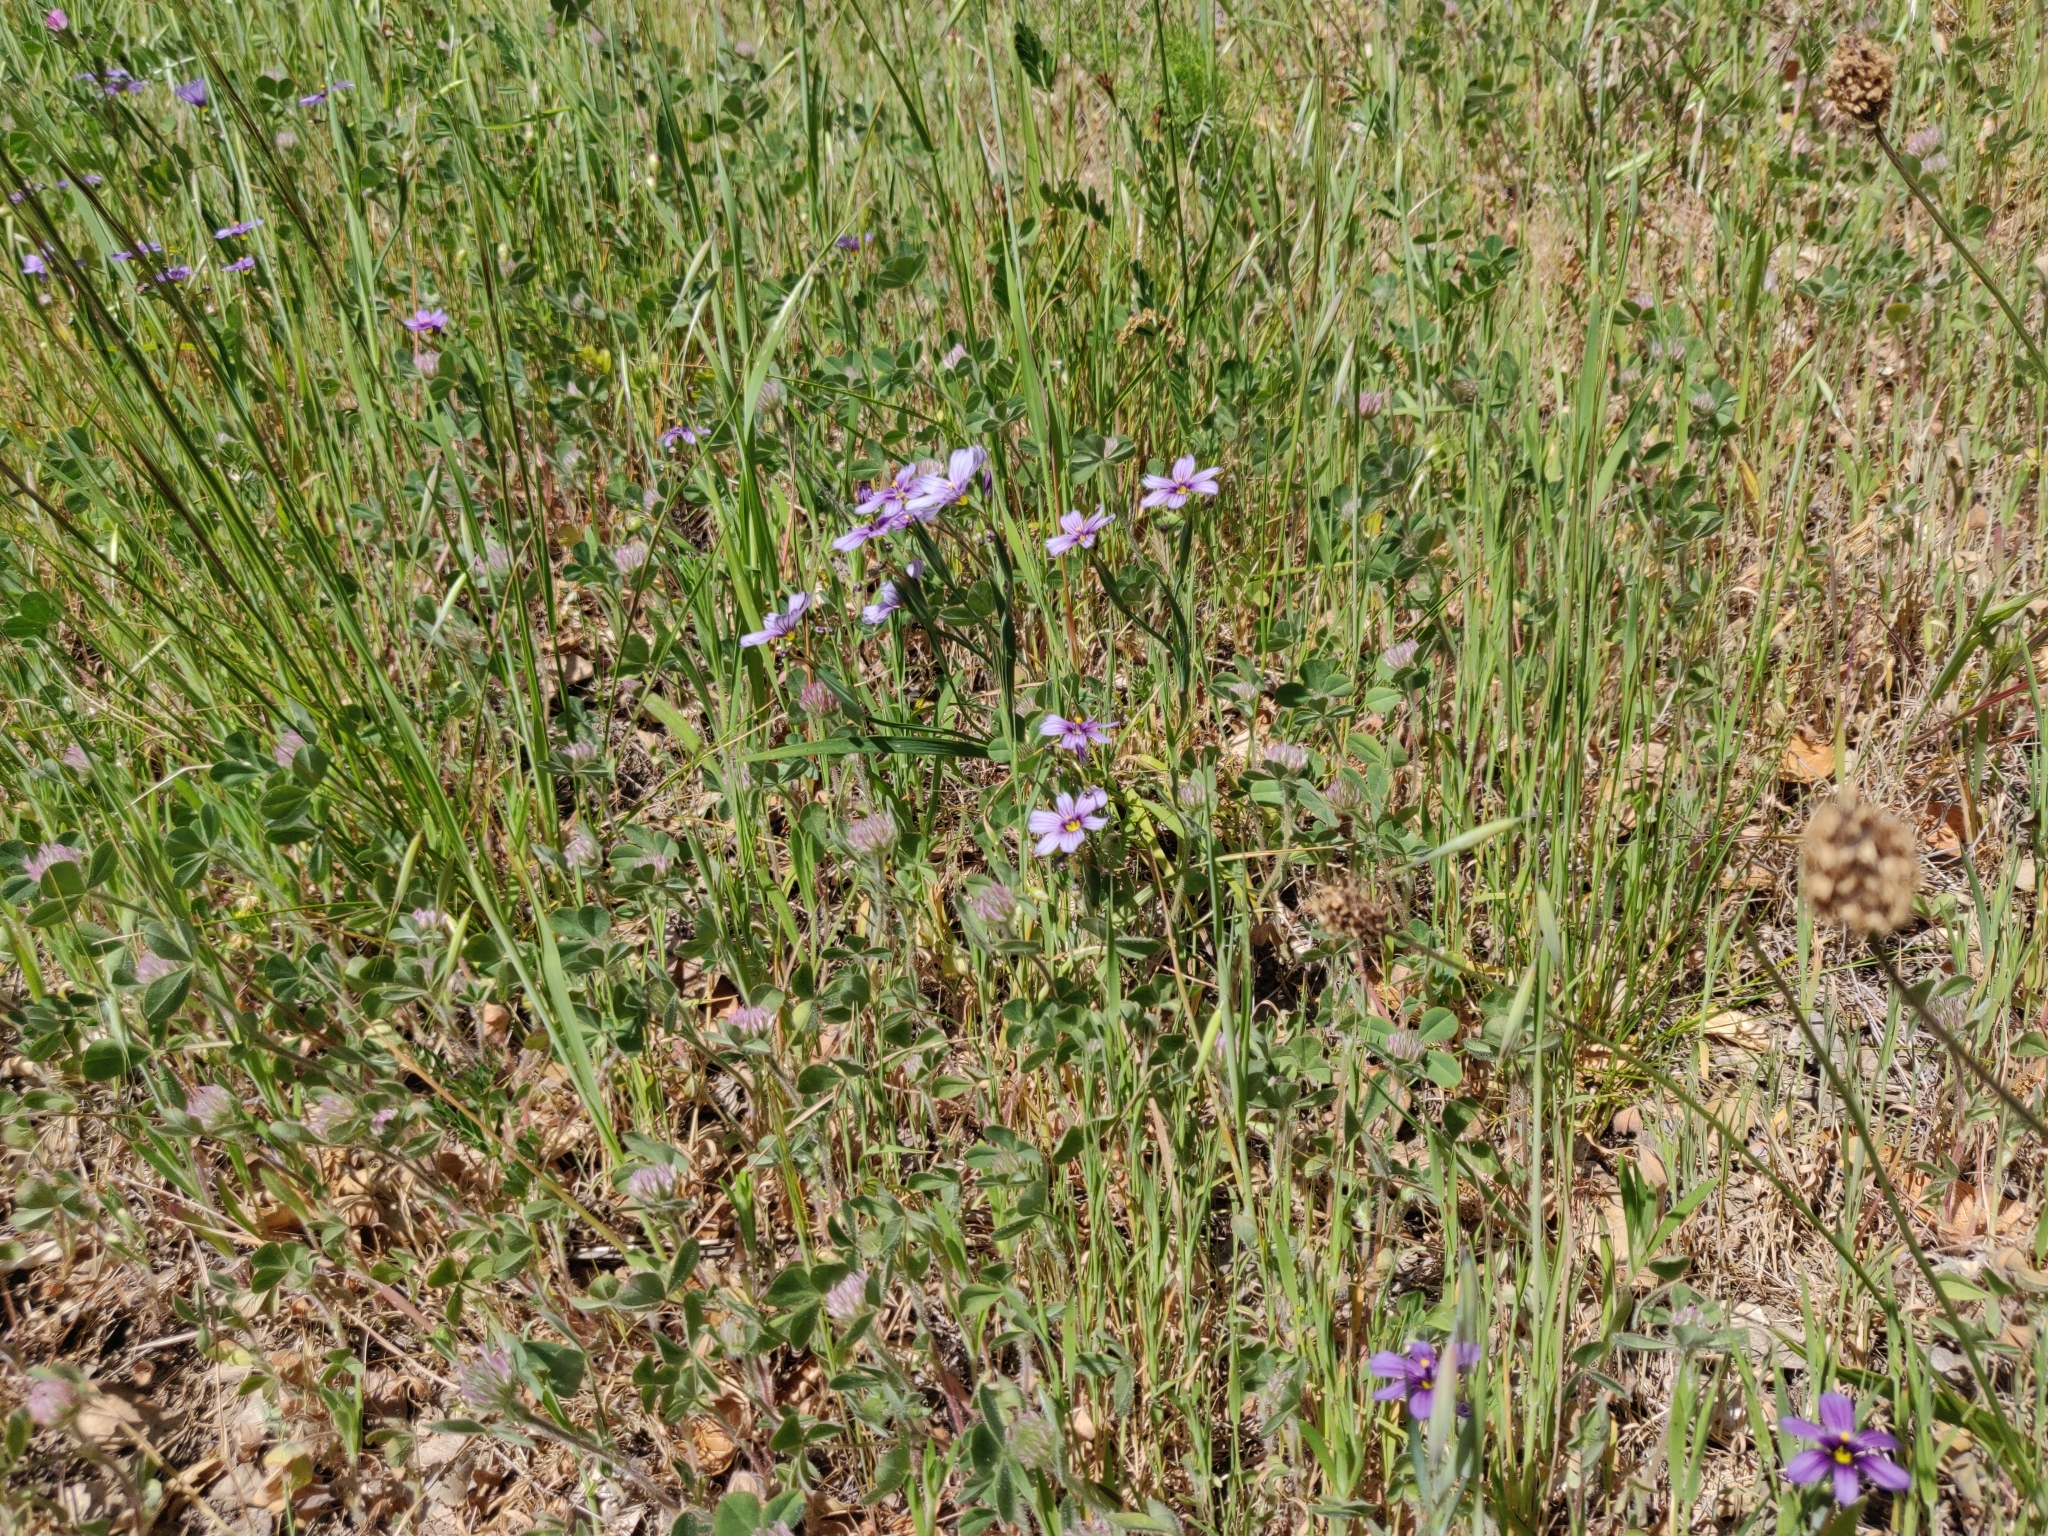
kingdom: Plantae
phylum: Tracheophyta
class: Liliopsida
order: Asparagales
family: Iridaceae
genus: Sisyrinchium
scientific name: Sisyrinchium bellum
